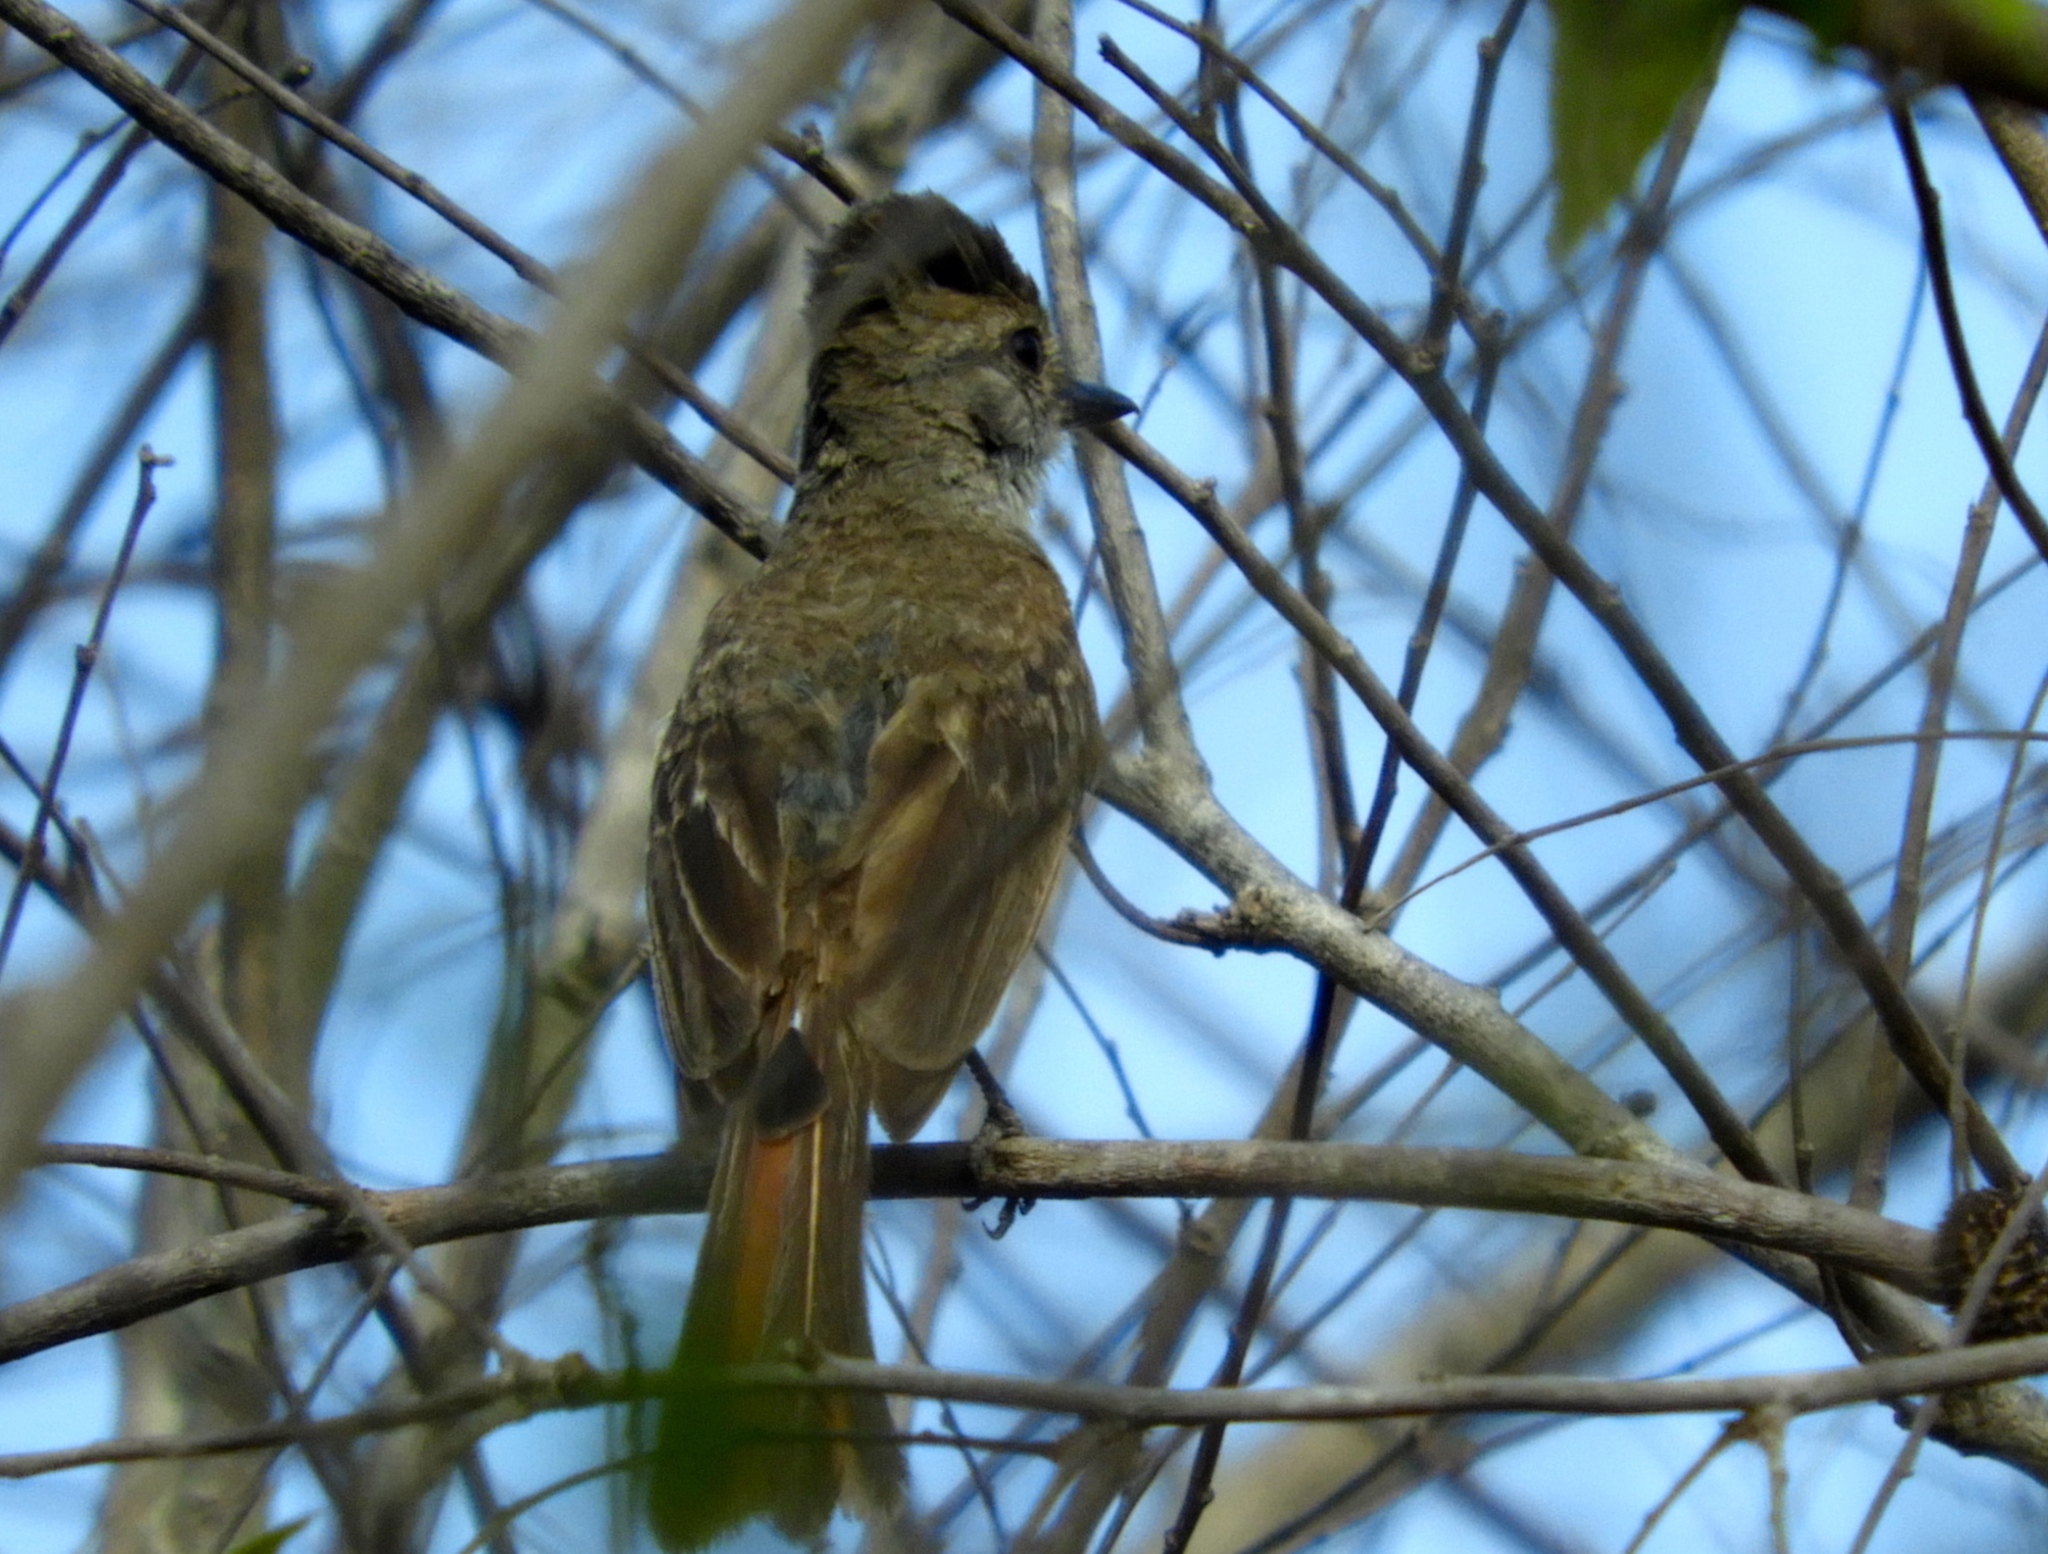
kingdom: Animalia
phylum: Chordata
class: Aves
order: Passeriformes
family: Tyrannidae
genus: Myiarchus
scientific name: Myiarchus
